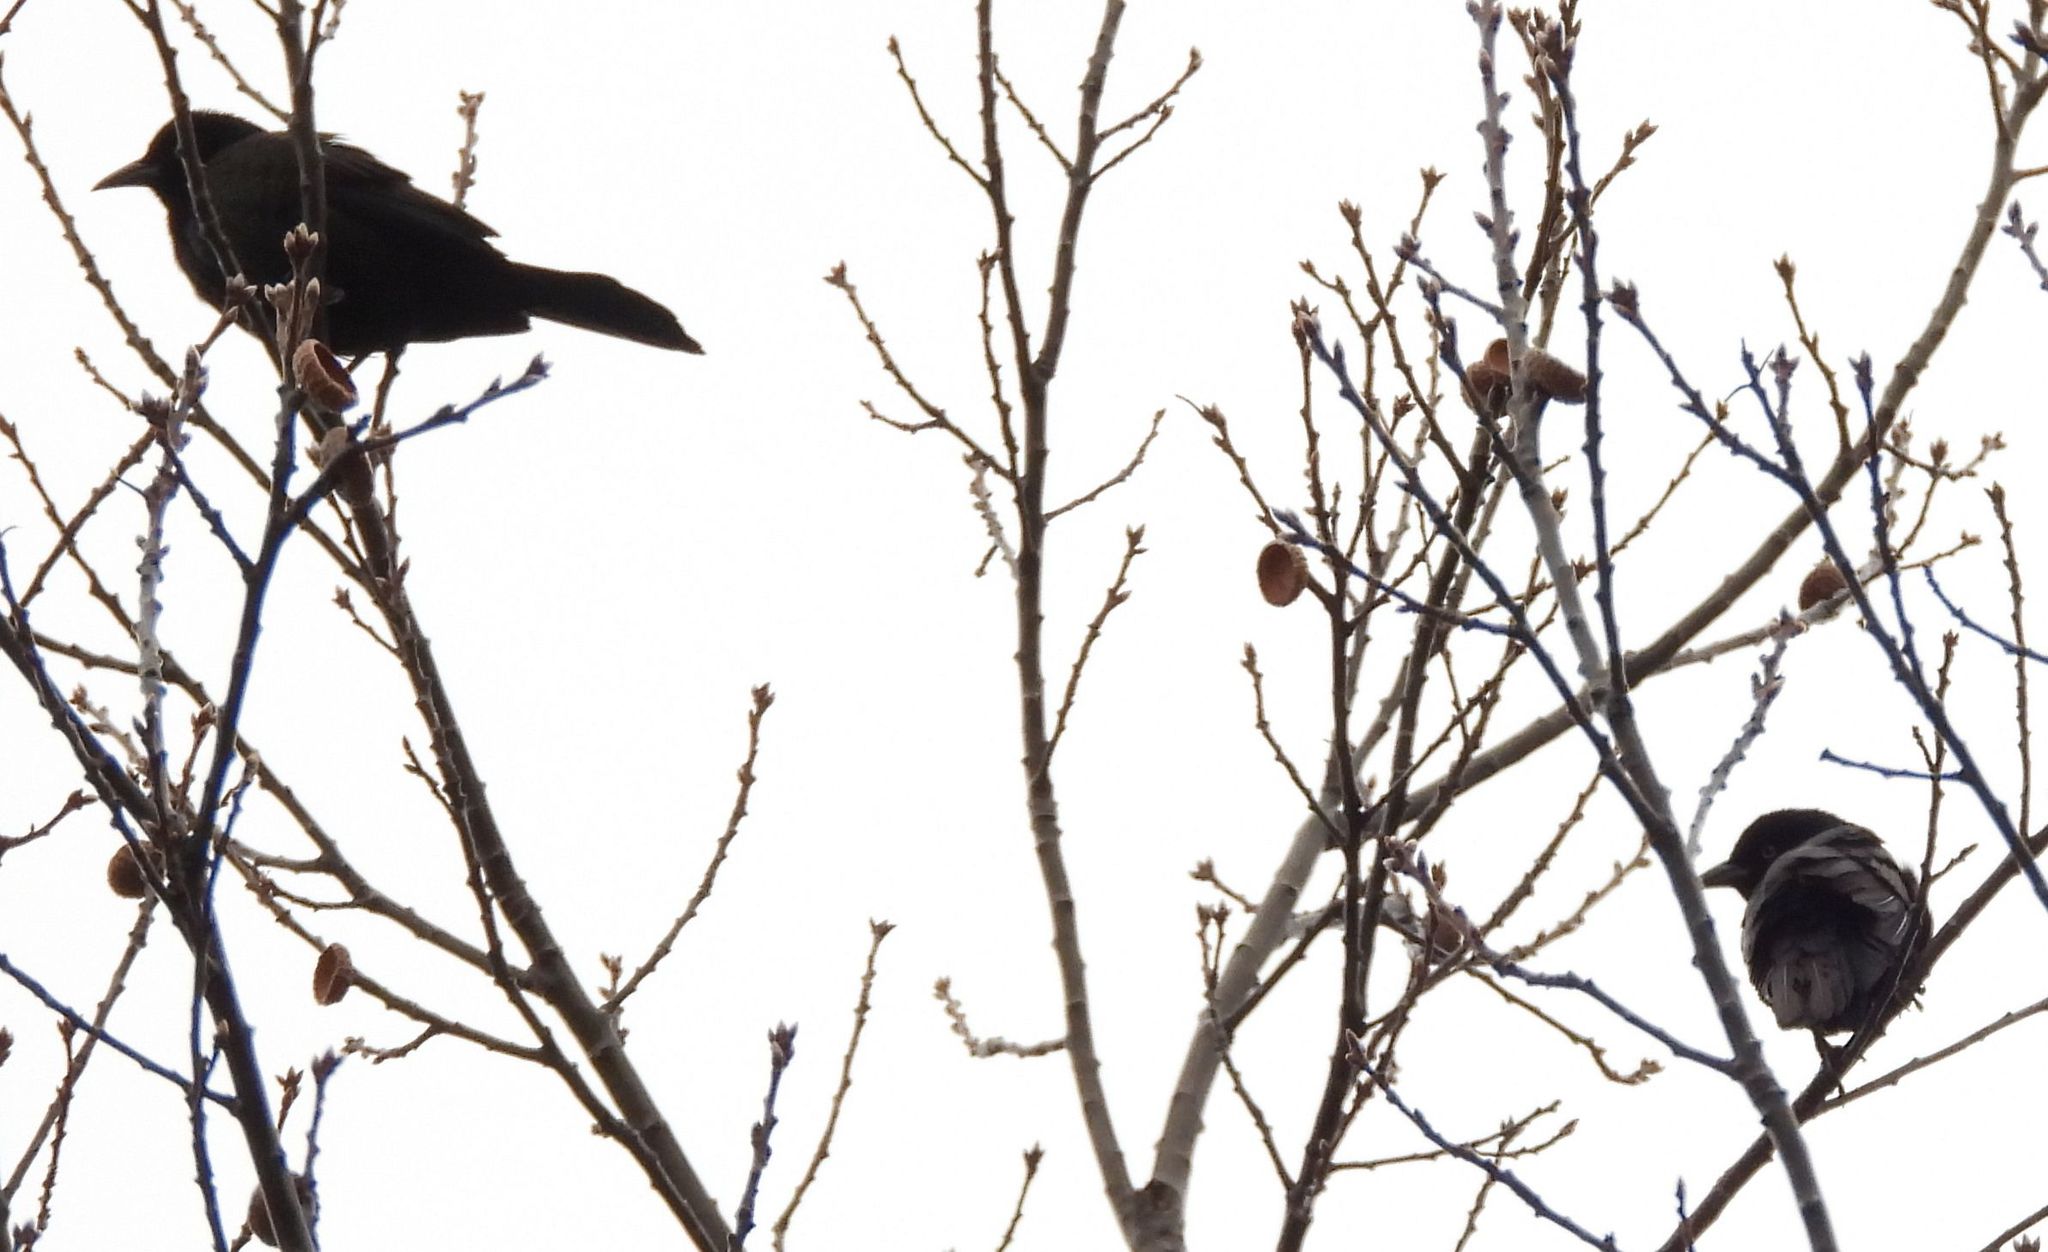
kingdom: Animalia
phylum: Chordata
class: Aves
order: Passeriformes
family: Icteridae
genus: Quiscalus
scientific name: Quiscalus quiscula
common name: Common grackle
